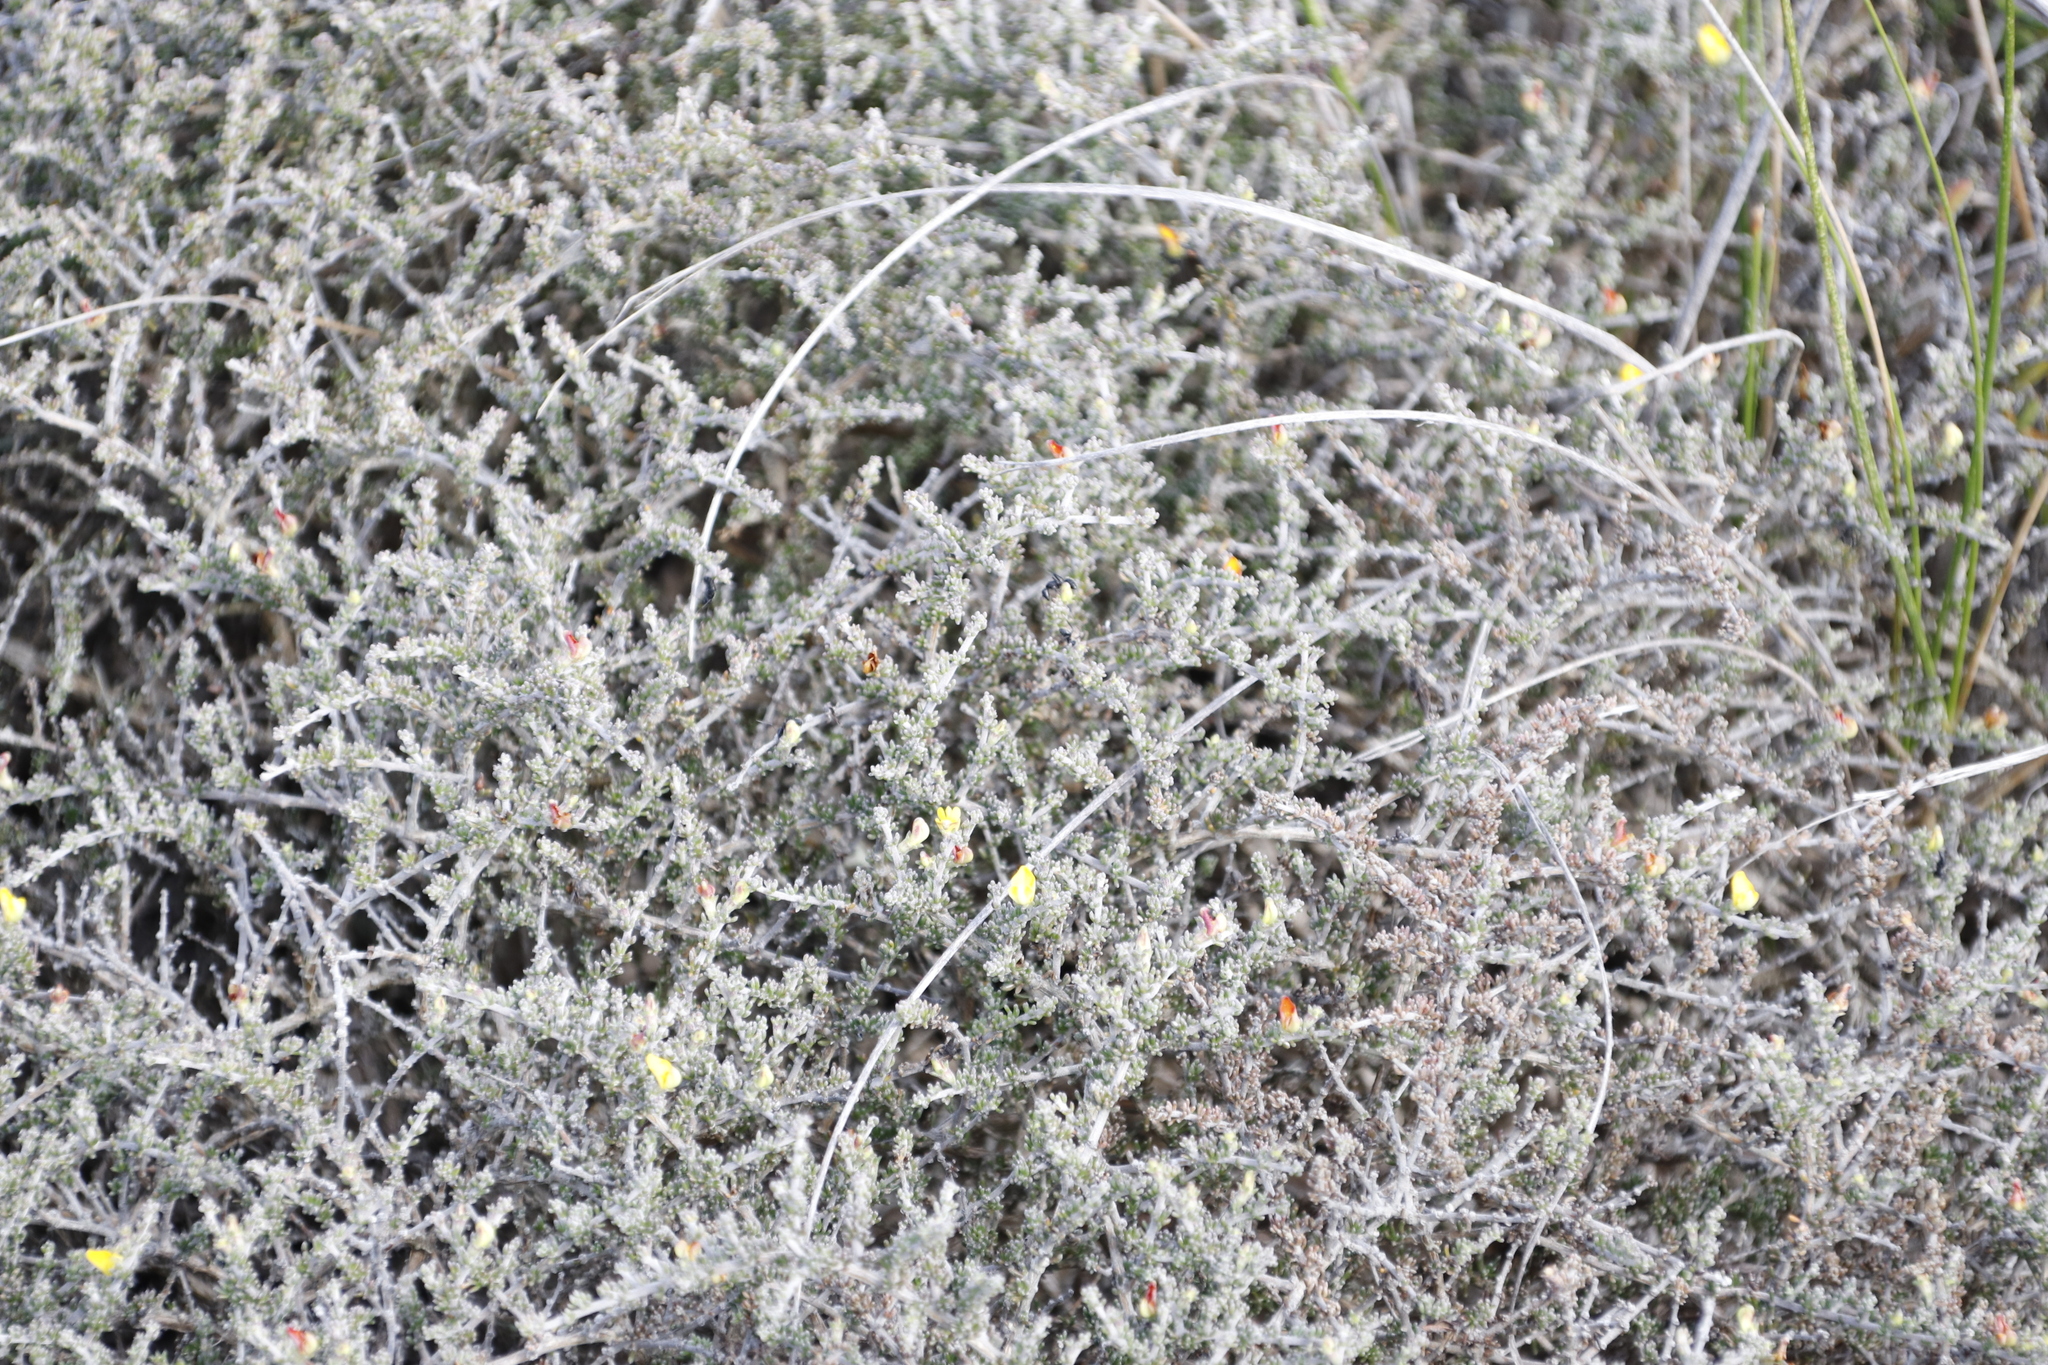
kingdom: Plantae
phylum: Tracheophyta
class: Magnoliopsida
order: Fabales
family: Fabaceae
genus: Aspalathus
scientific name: Aspalathus smithii
